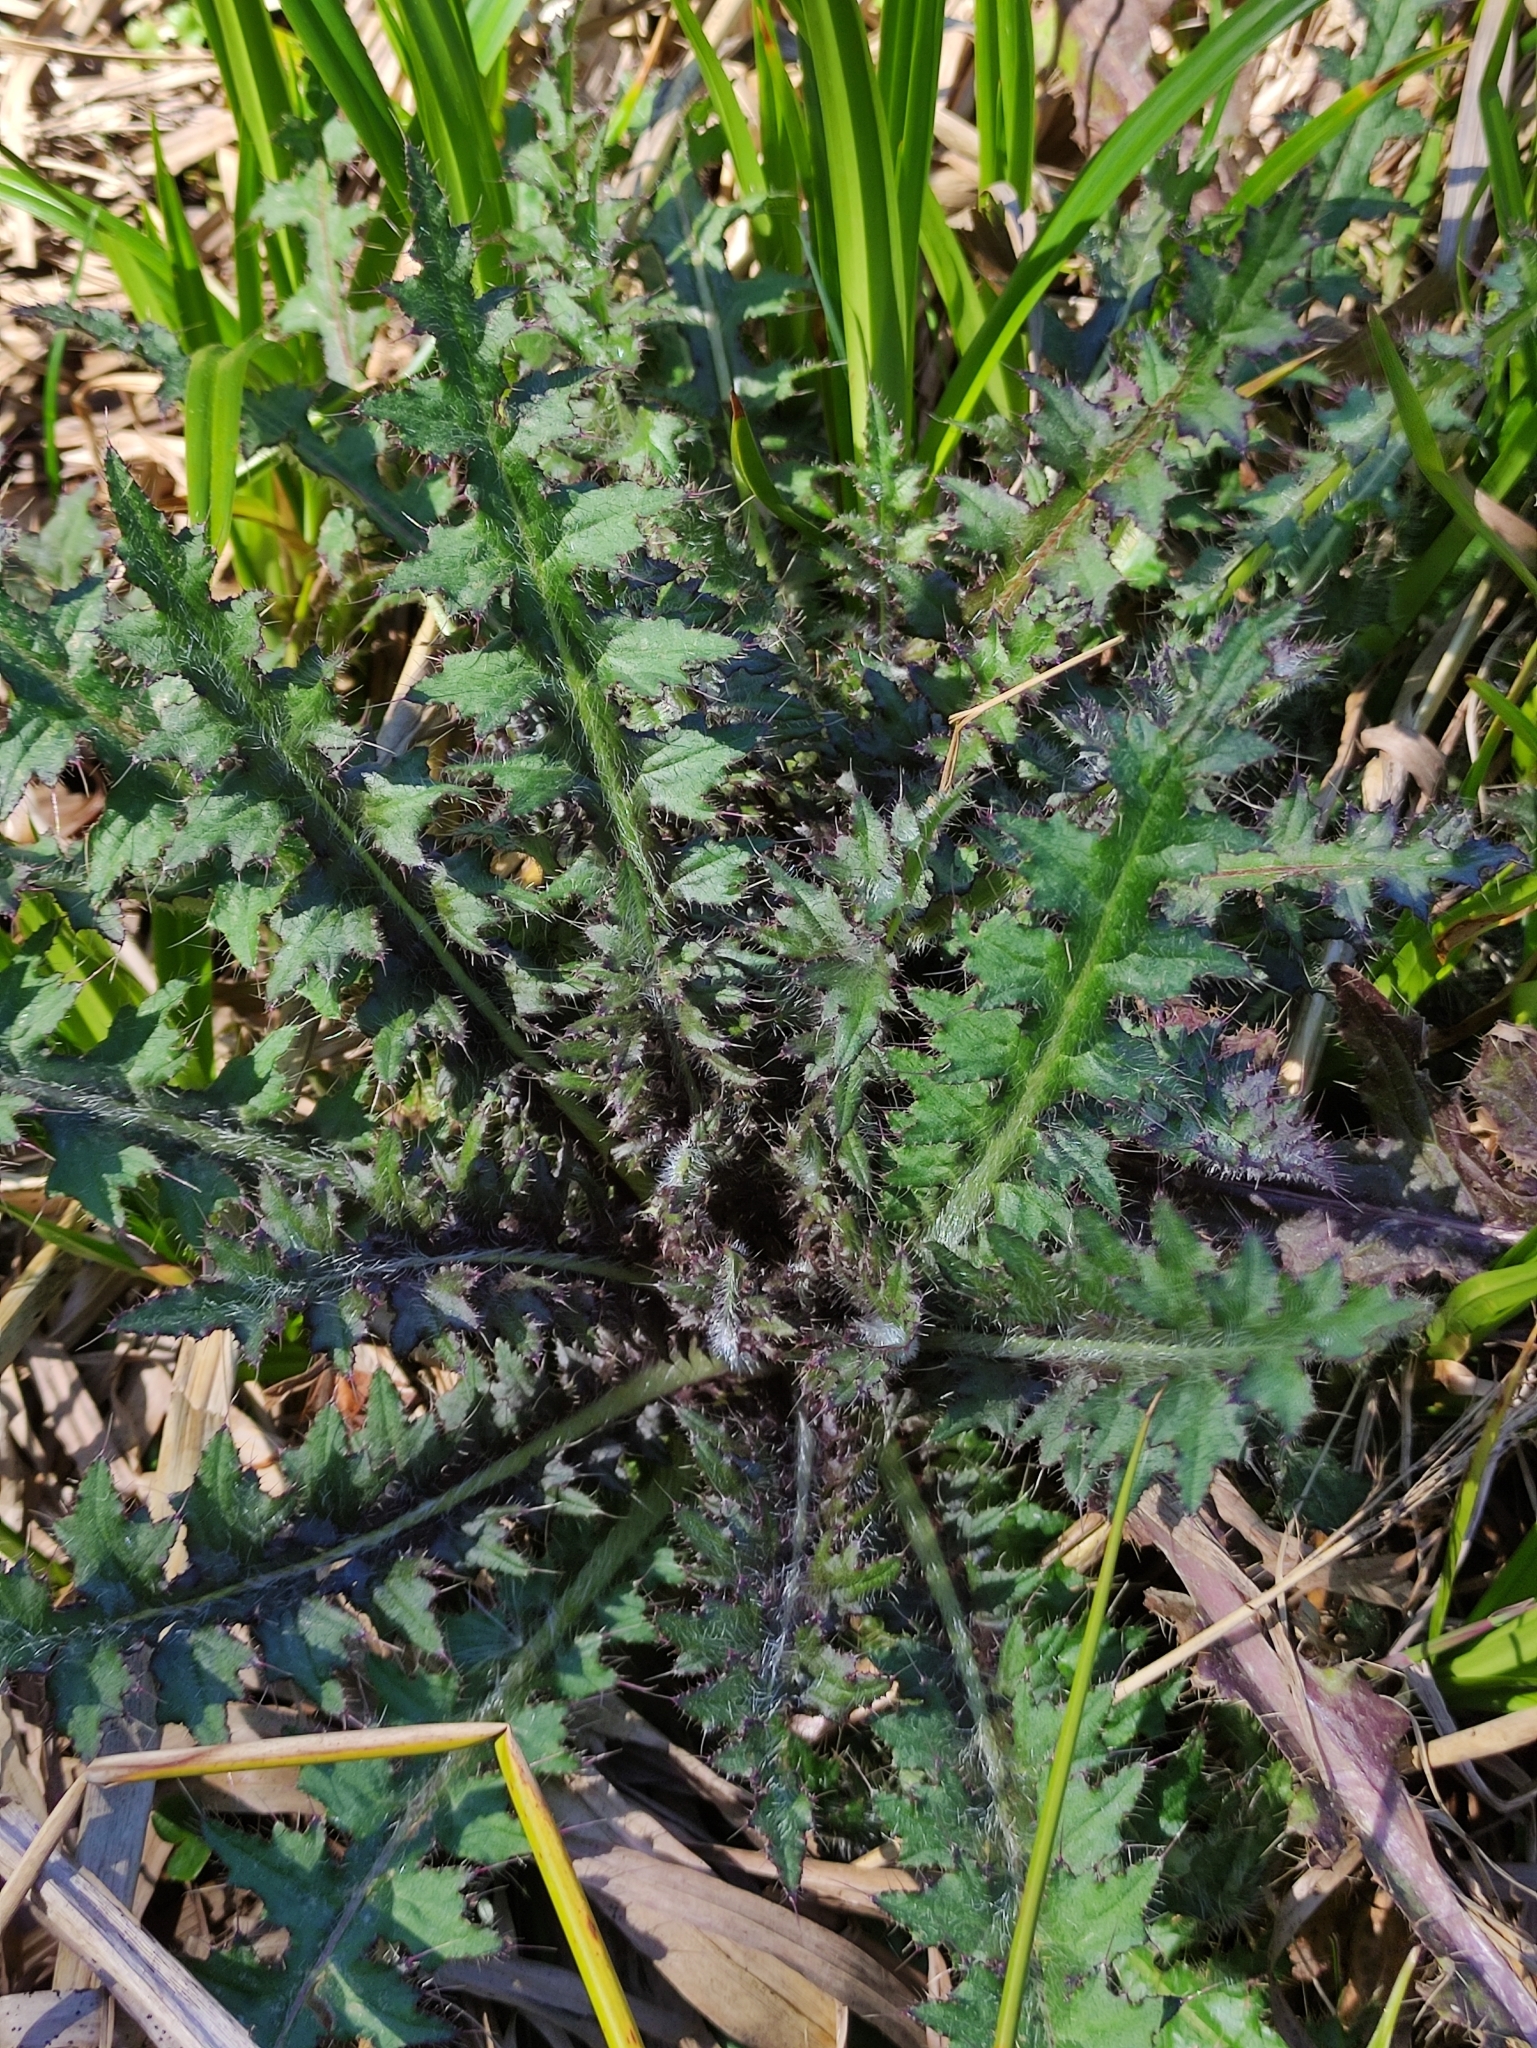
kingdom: Plantae
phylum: Tracheophyta
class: Magnoliopsida
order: Asterales
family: Asteraceae
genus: Cirsium
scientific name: Cirsium palustre
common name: Marsh thistle
